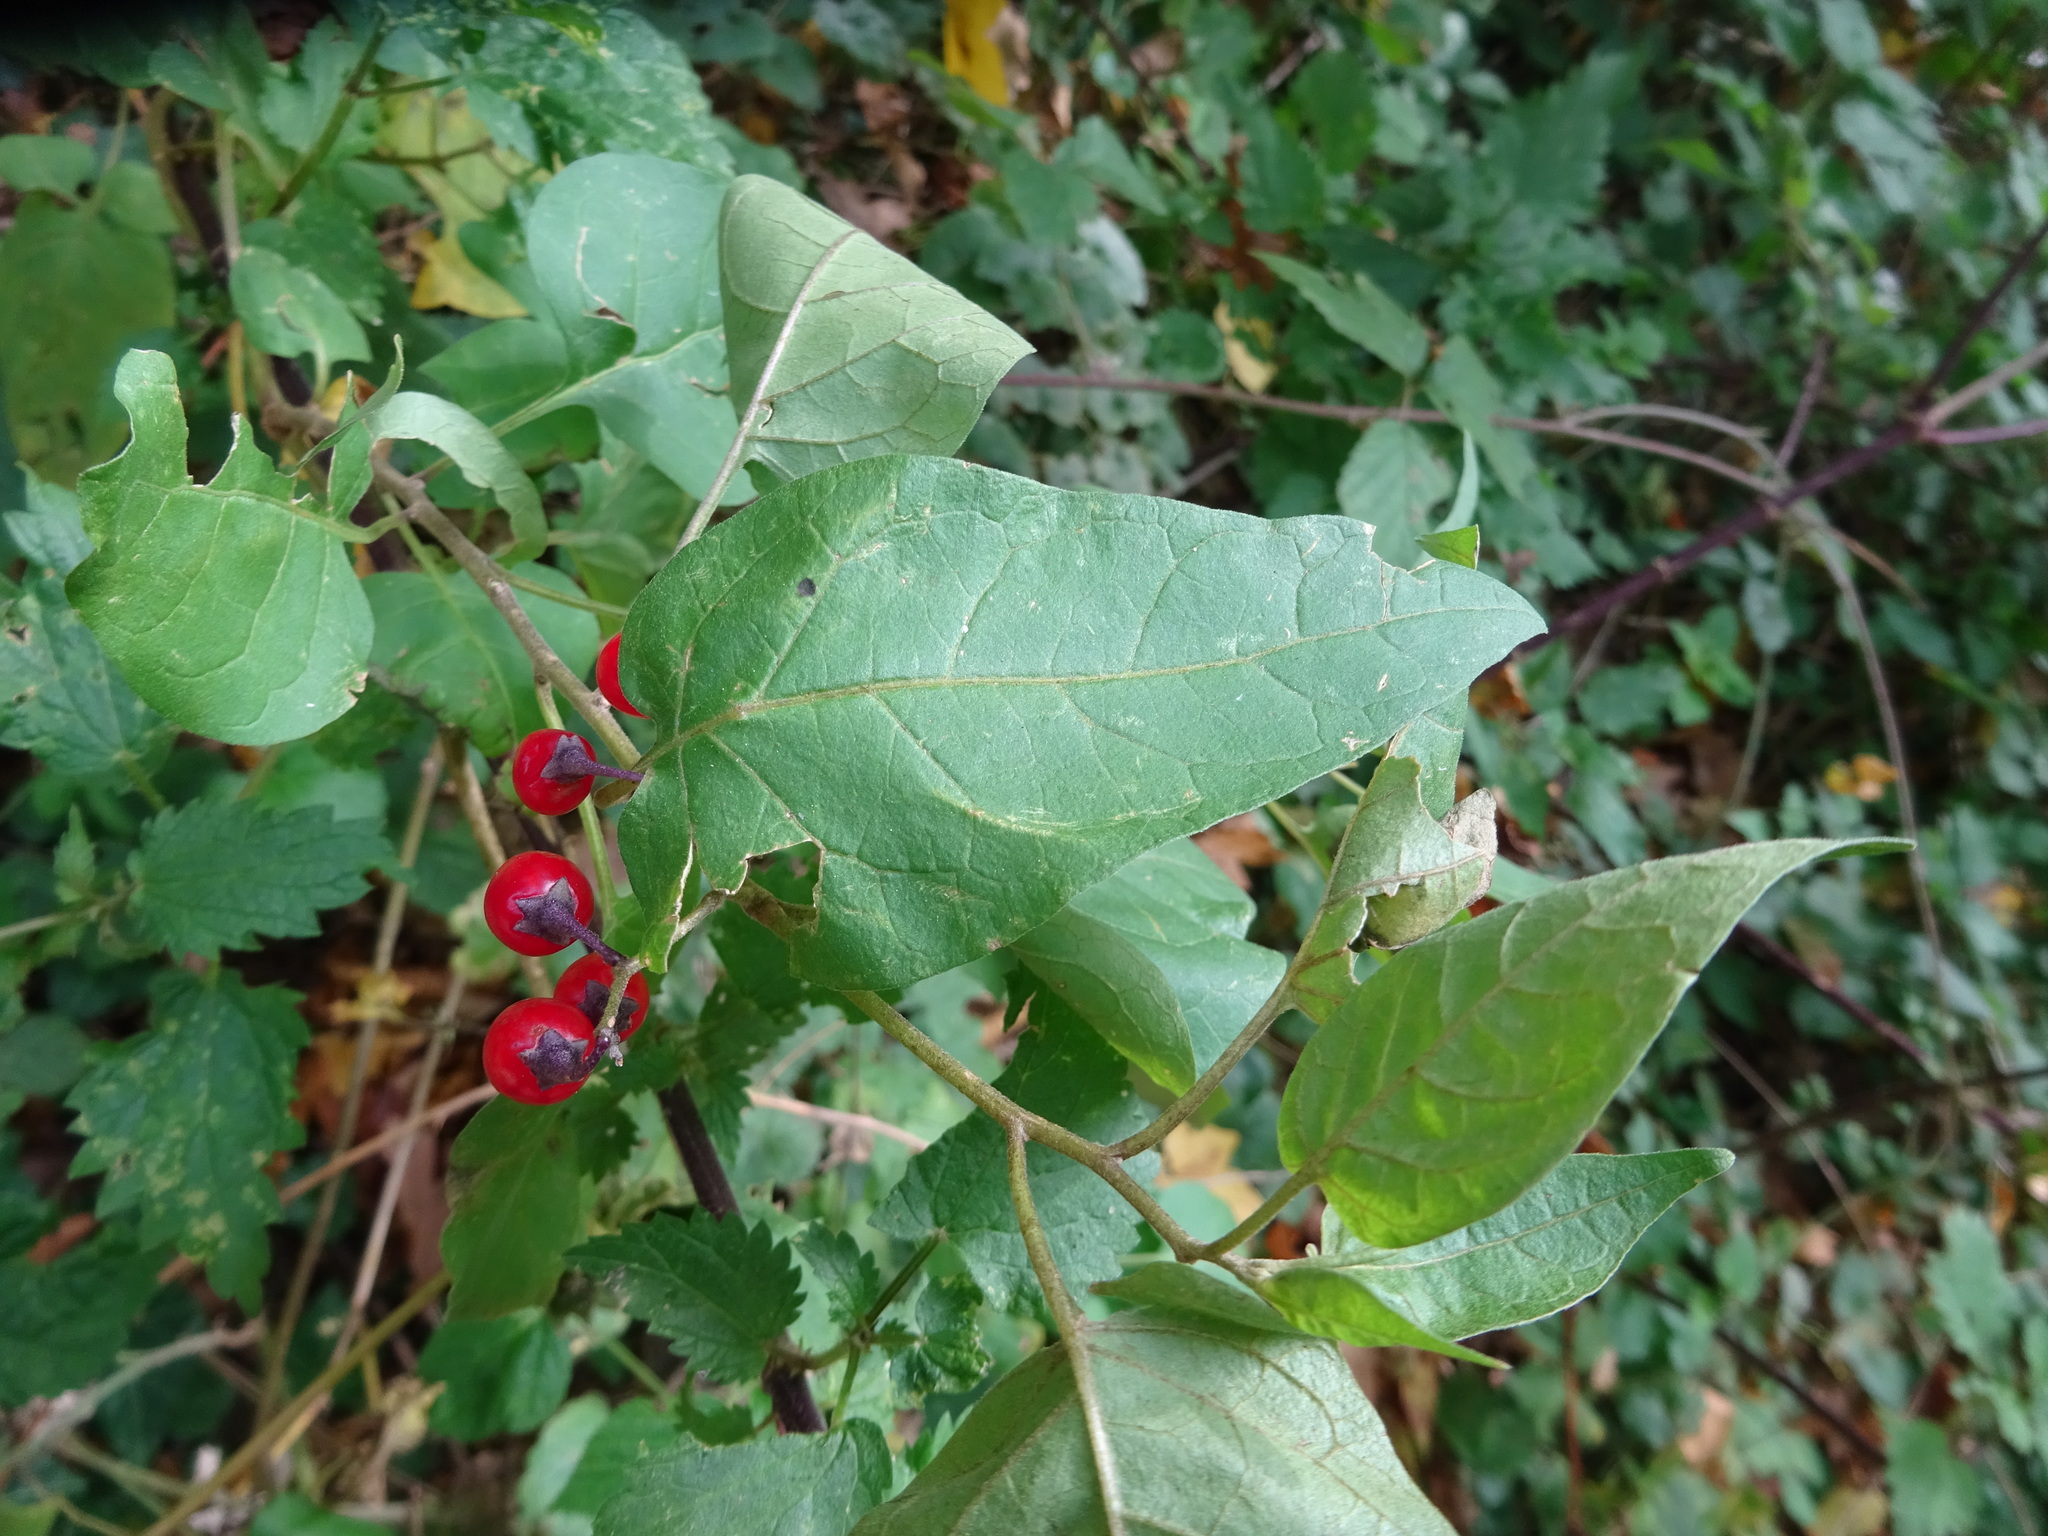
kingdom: Plantae
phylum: Tracheophyta
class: Magnoliopsida
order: Solanales
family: Solanaceae
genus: Solanum
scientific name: Solanum dulcamara
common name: Climbing nightshade
